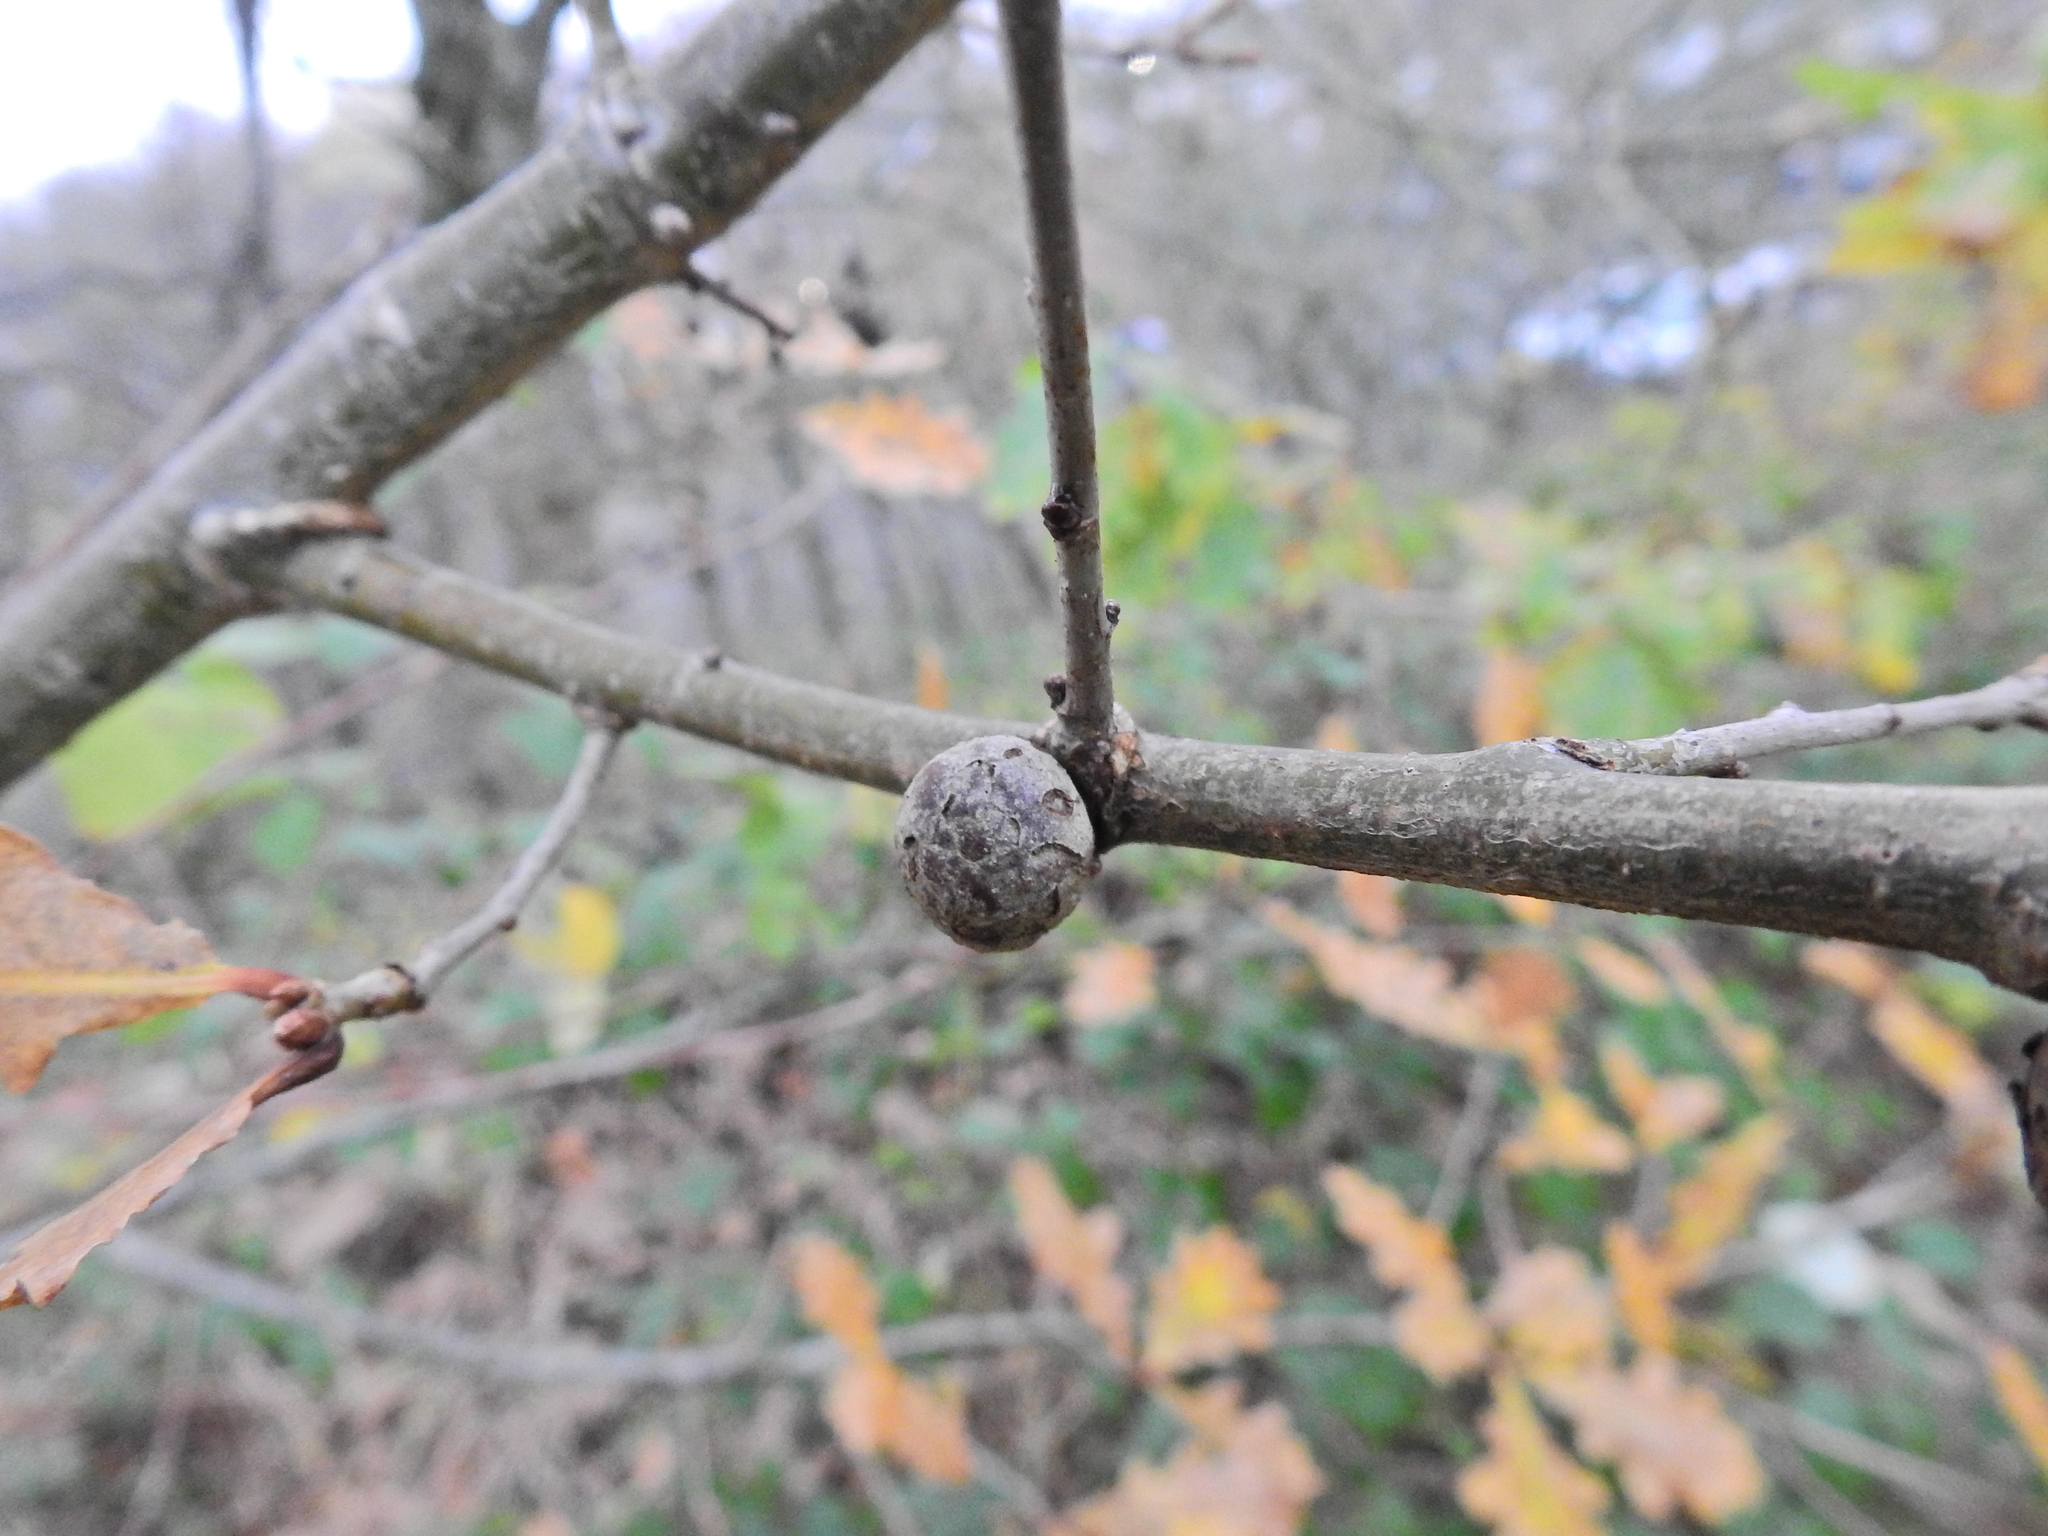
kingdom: Animalia
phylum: Arthropoda
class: Insecta
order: Hymenoptera
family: Cynipidae
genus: Andricus
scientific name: Andricus lignicolus
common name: Cola-nut gall
